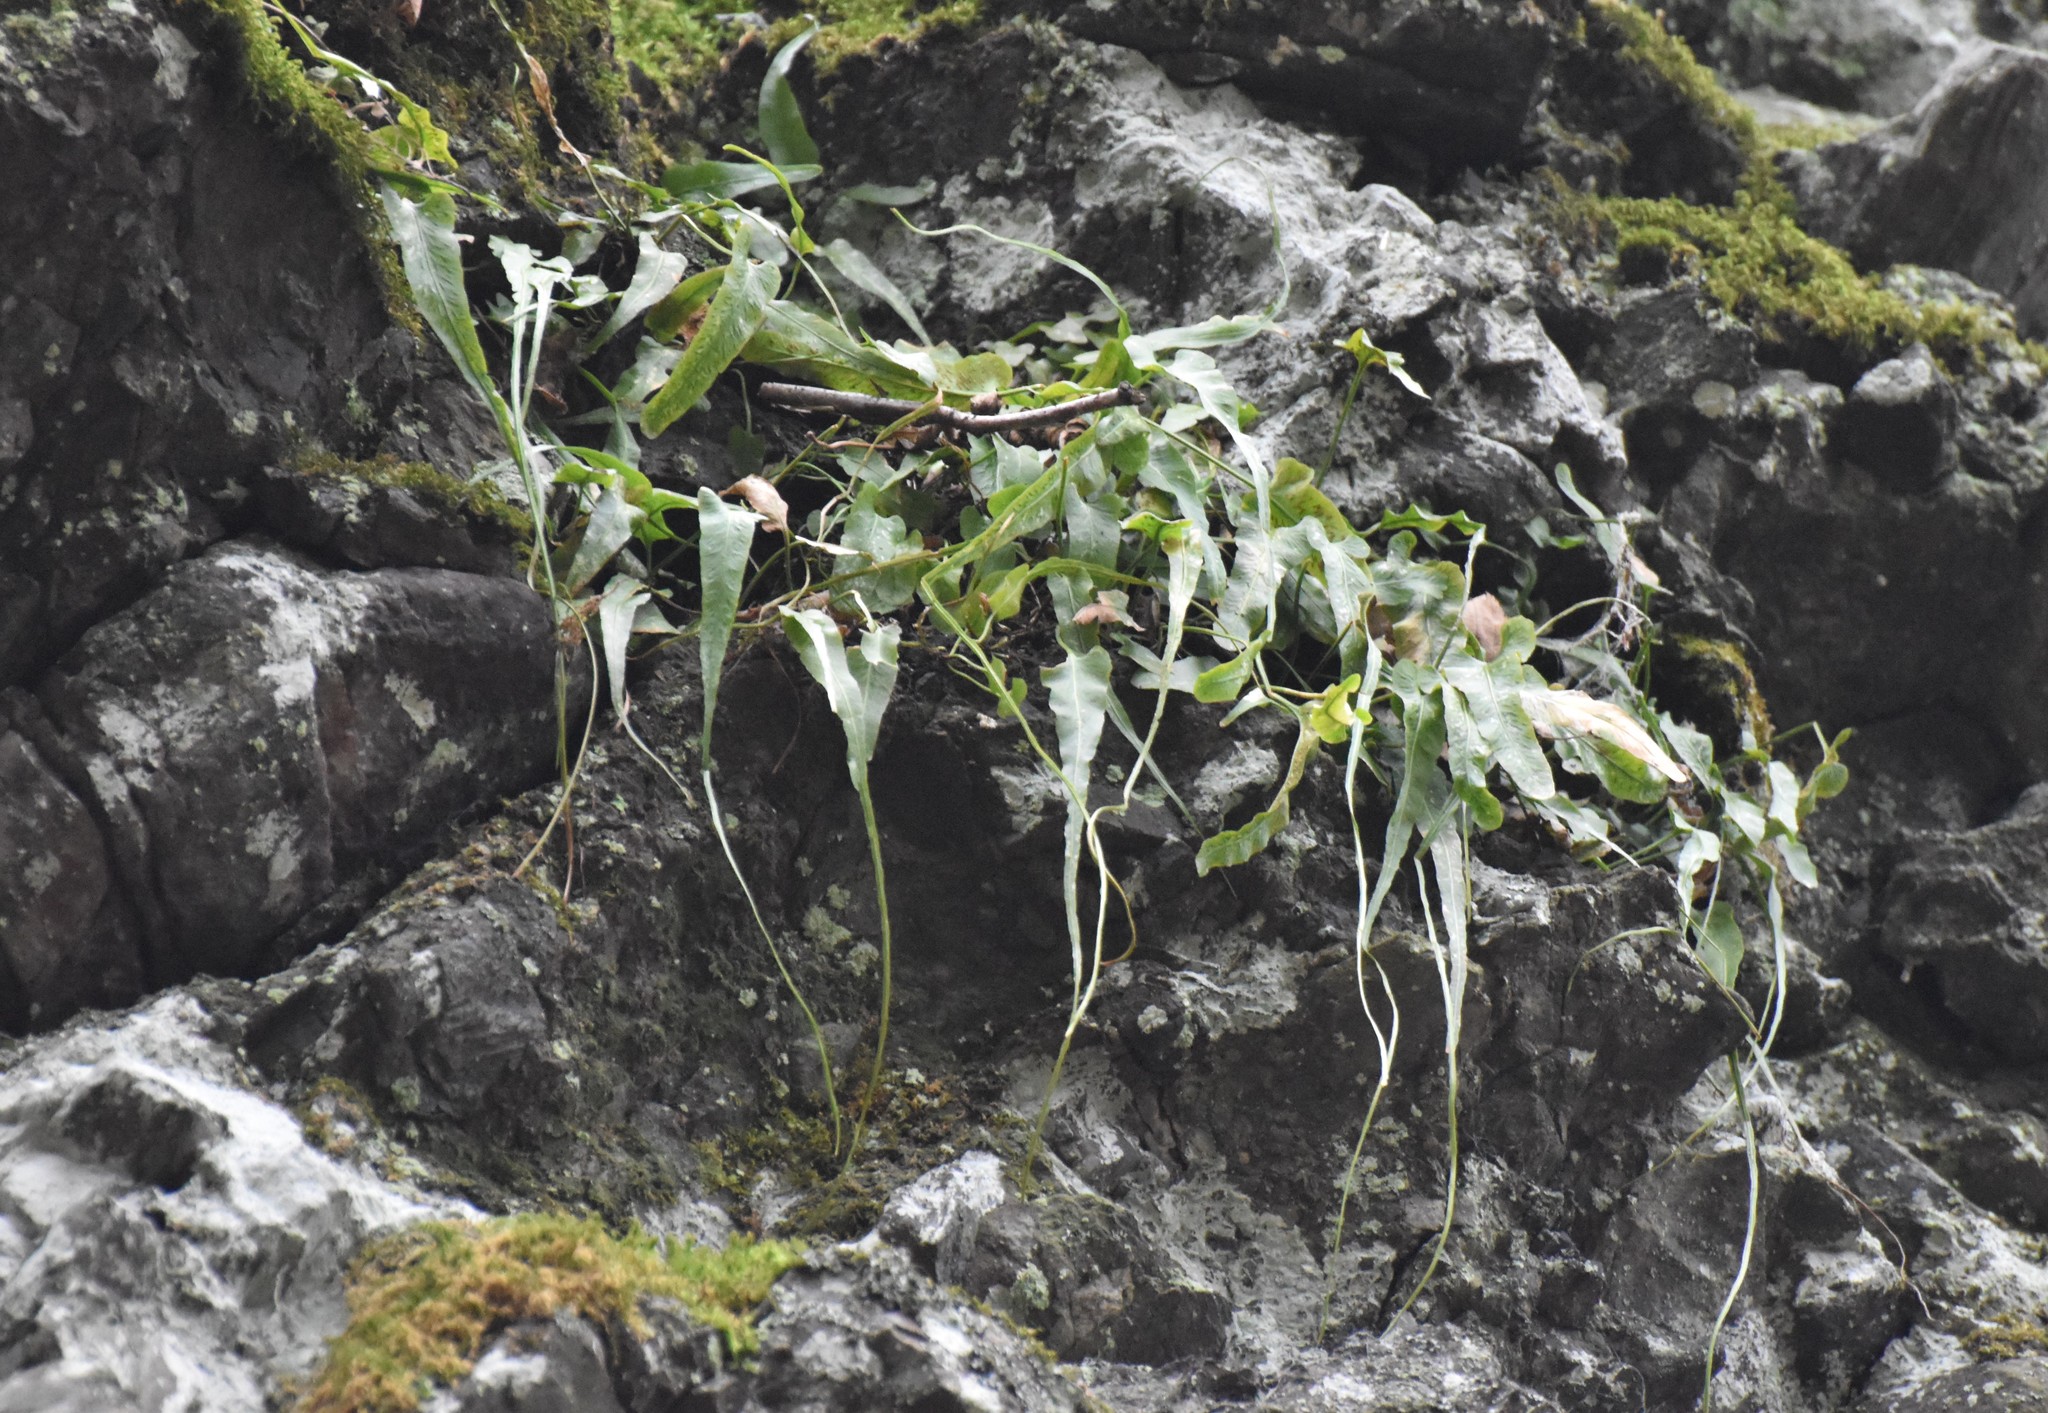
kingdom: Plantae
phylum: Tracheophyta
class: Polypodiopsida
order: Polypodiales
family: Aspleniaceae
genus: Asplenium
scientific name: Asplenium rhizophyllum
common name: Walking fern
